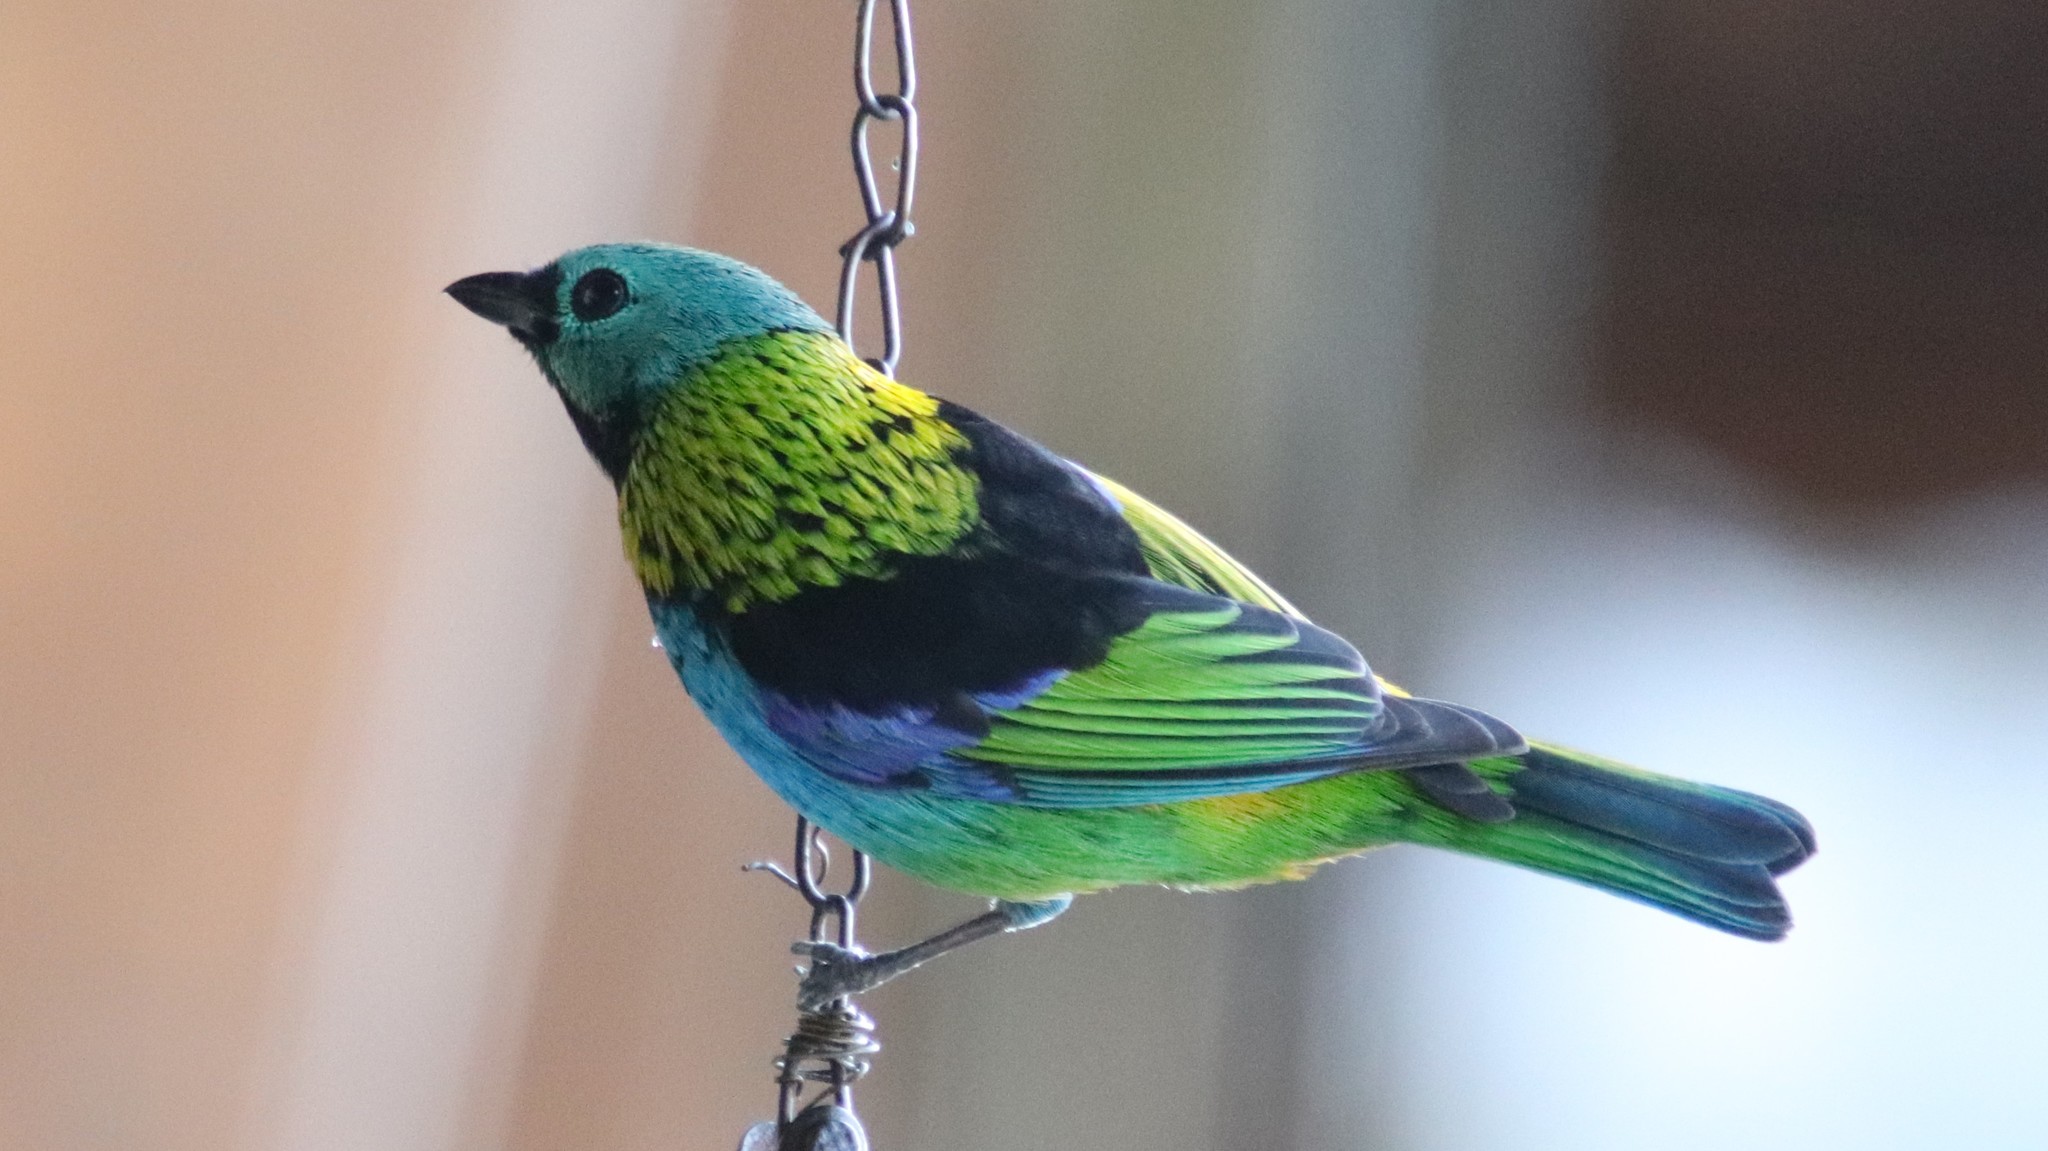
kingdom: Animalia
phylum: Chordata
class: Aves
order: Passeriformes
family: Thraupidae
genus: Tangara
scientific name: Tangara seledon
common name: Green-headed tanager
